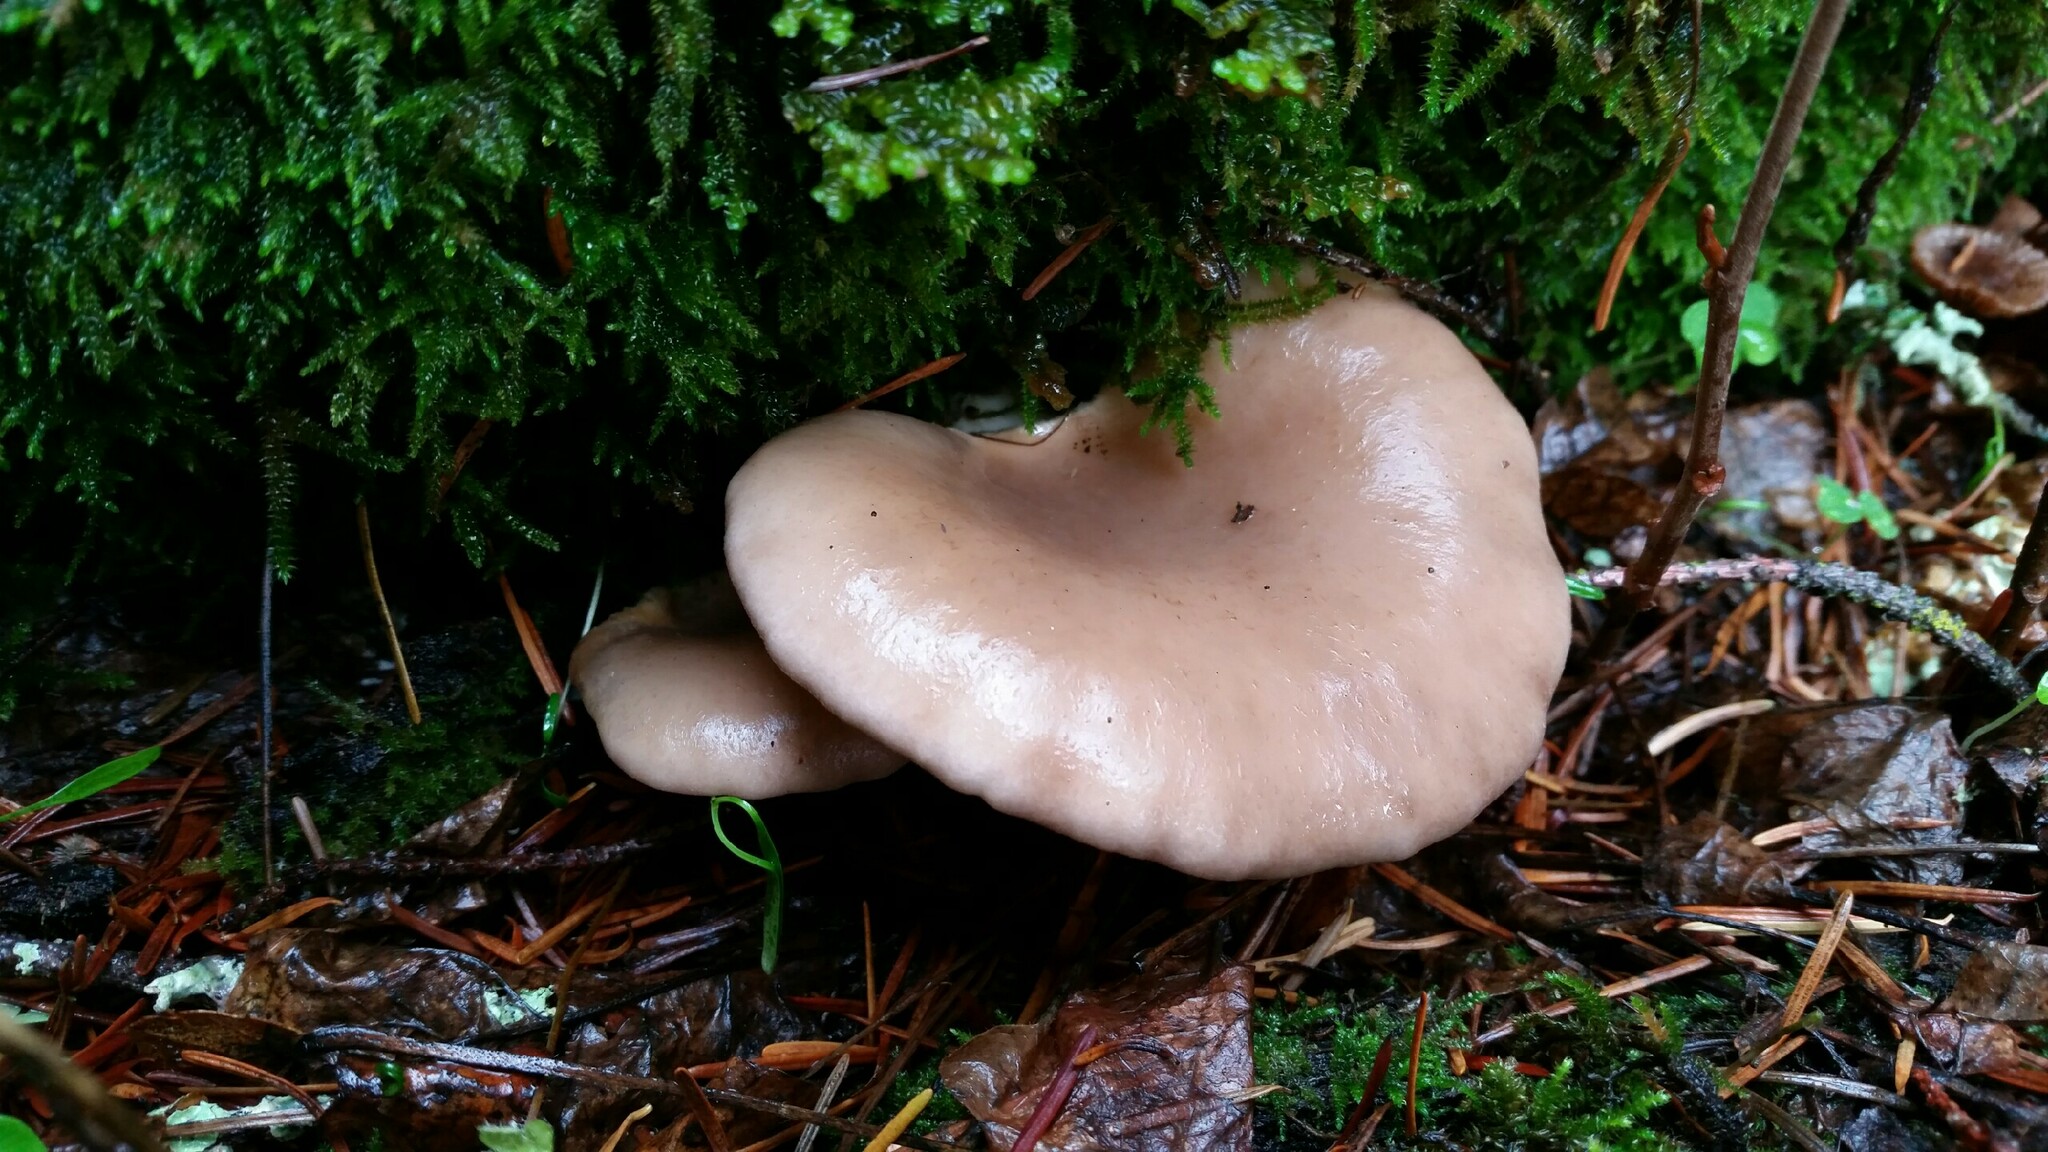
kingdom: Fungi
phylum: Basidiomycota
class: Agaricomycetes
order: Agaricales
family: Pleurotaceae
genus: Pleurotus
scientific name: Pleurotus ostreatus
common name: Oyster mushroom
